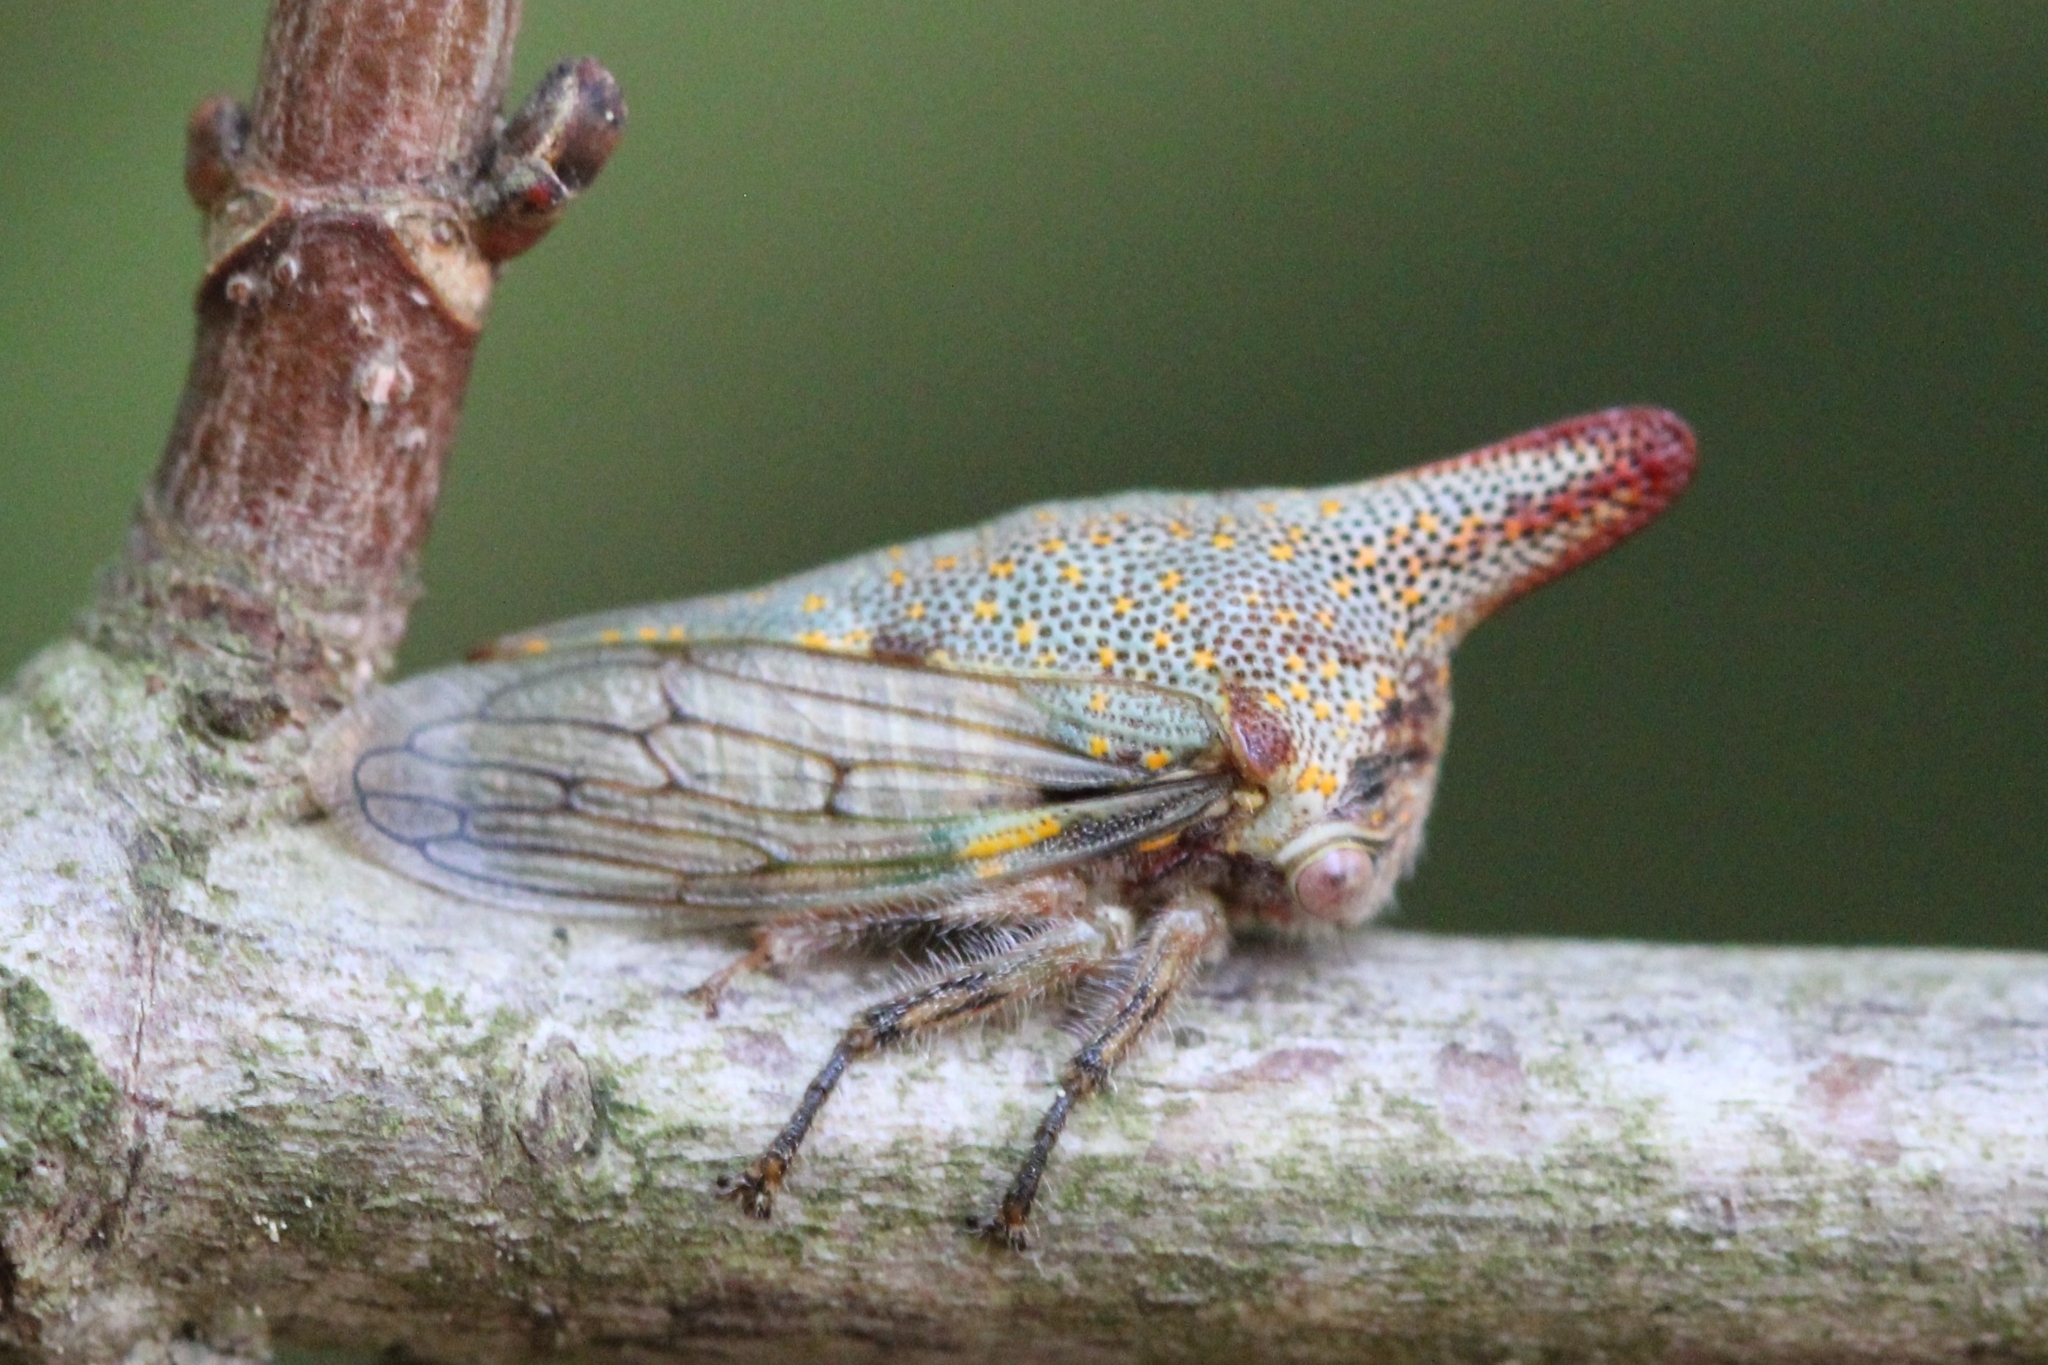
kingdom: Animalia
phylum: Arthropoda
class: Insecta
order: Hemiptera
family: Membracidae
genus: Platycotis
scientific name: Platycotis vittatus
